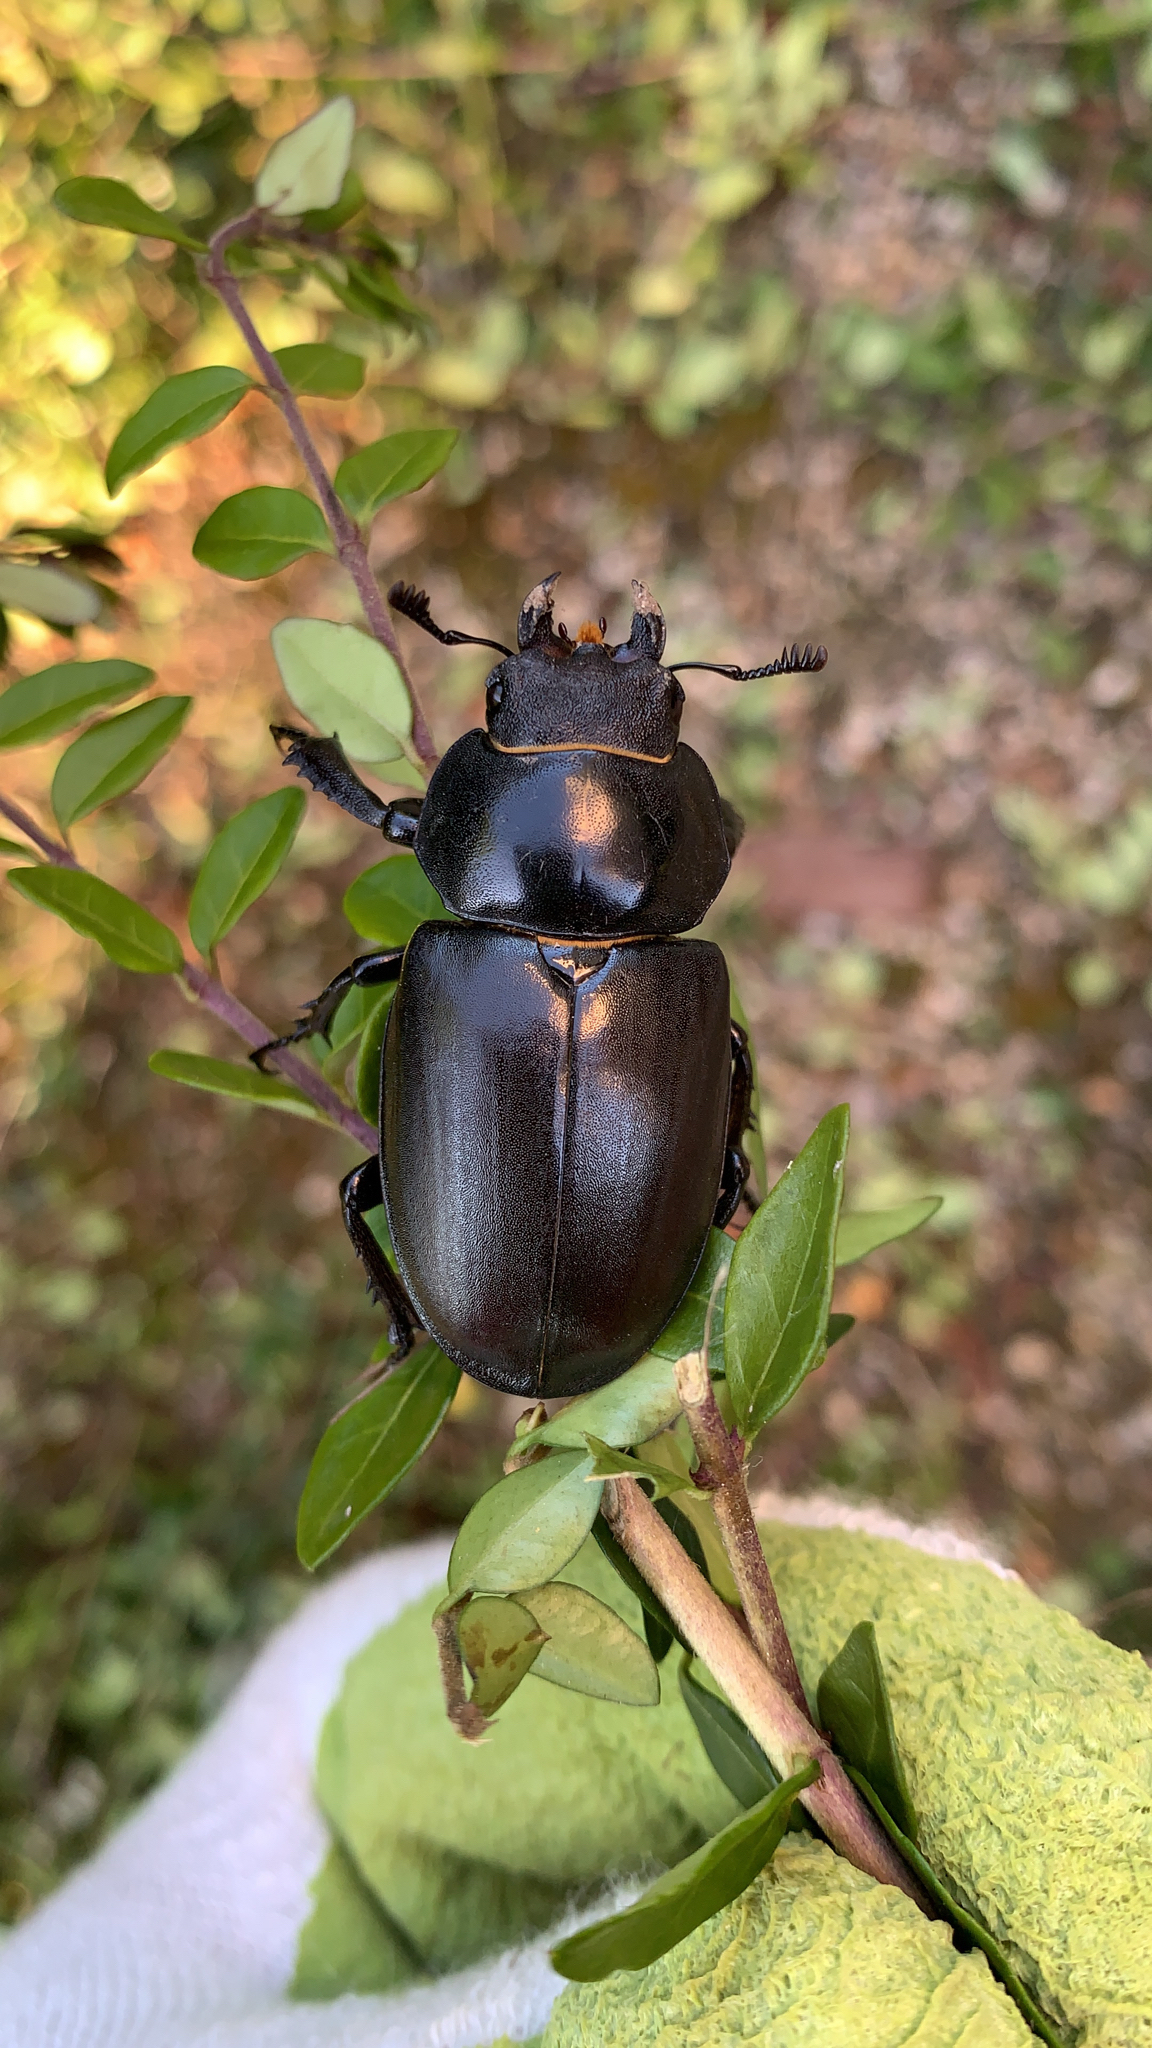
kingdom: Animalia
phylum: Arthropoda
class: Insecta
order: Coleoptera
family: Lucanidae
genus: Lucanus
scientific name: Lucanus cervus
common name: Stag beetle
